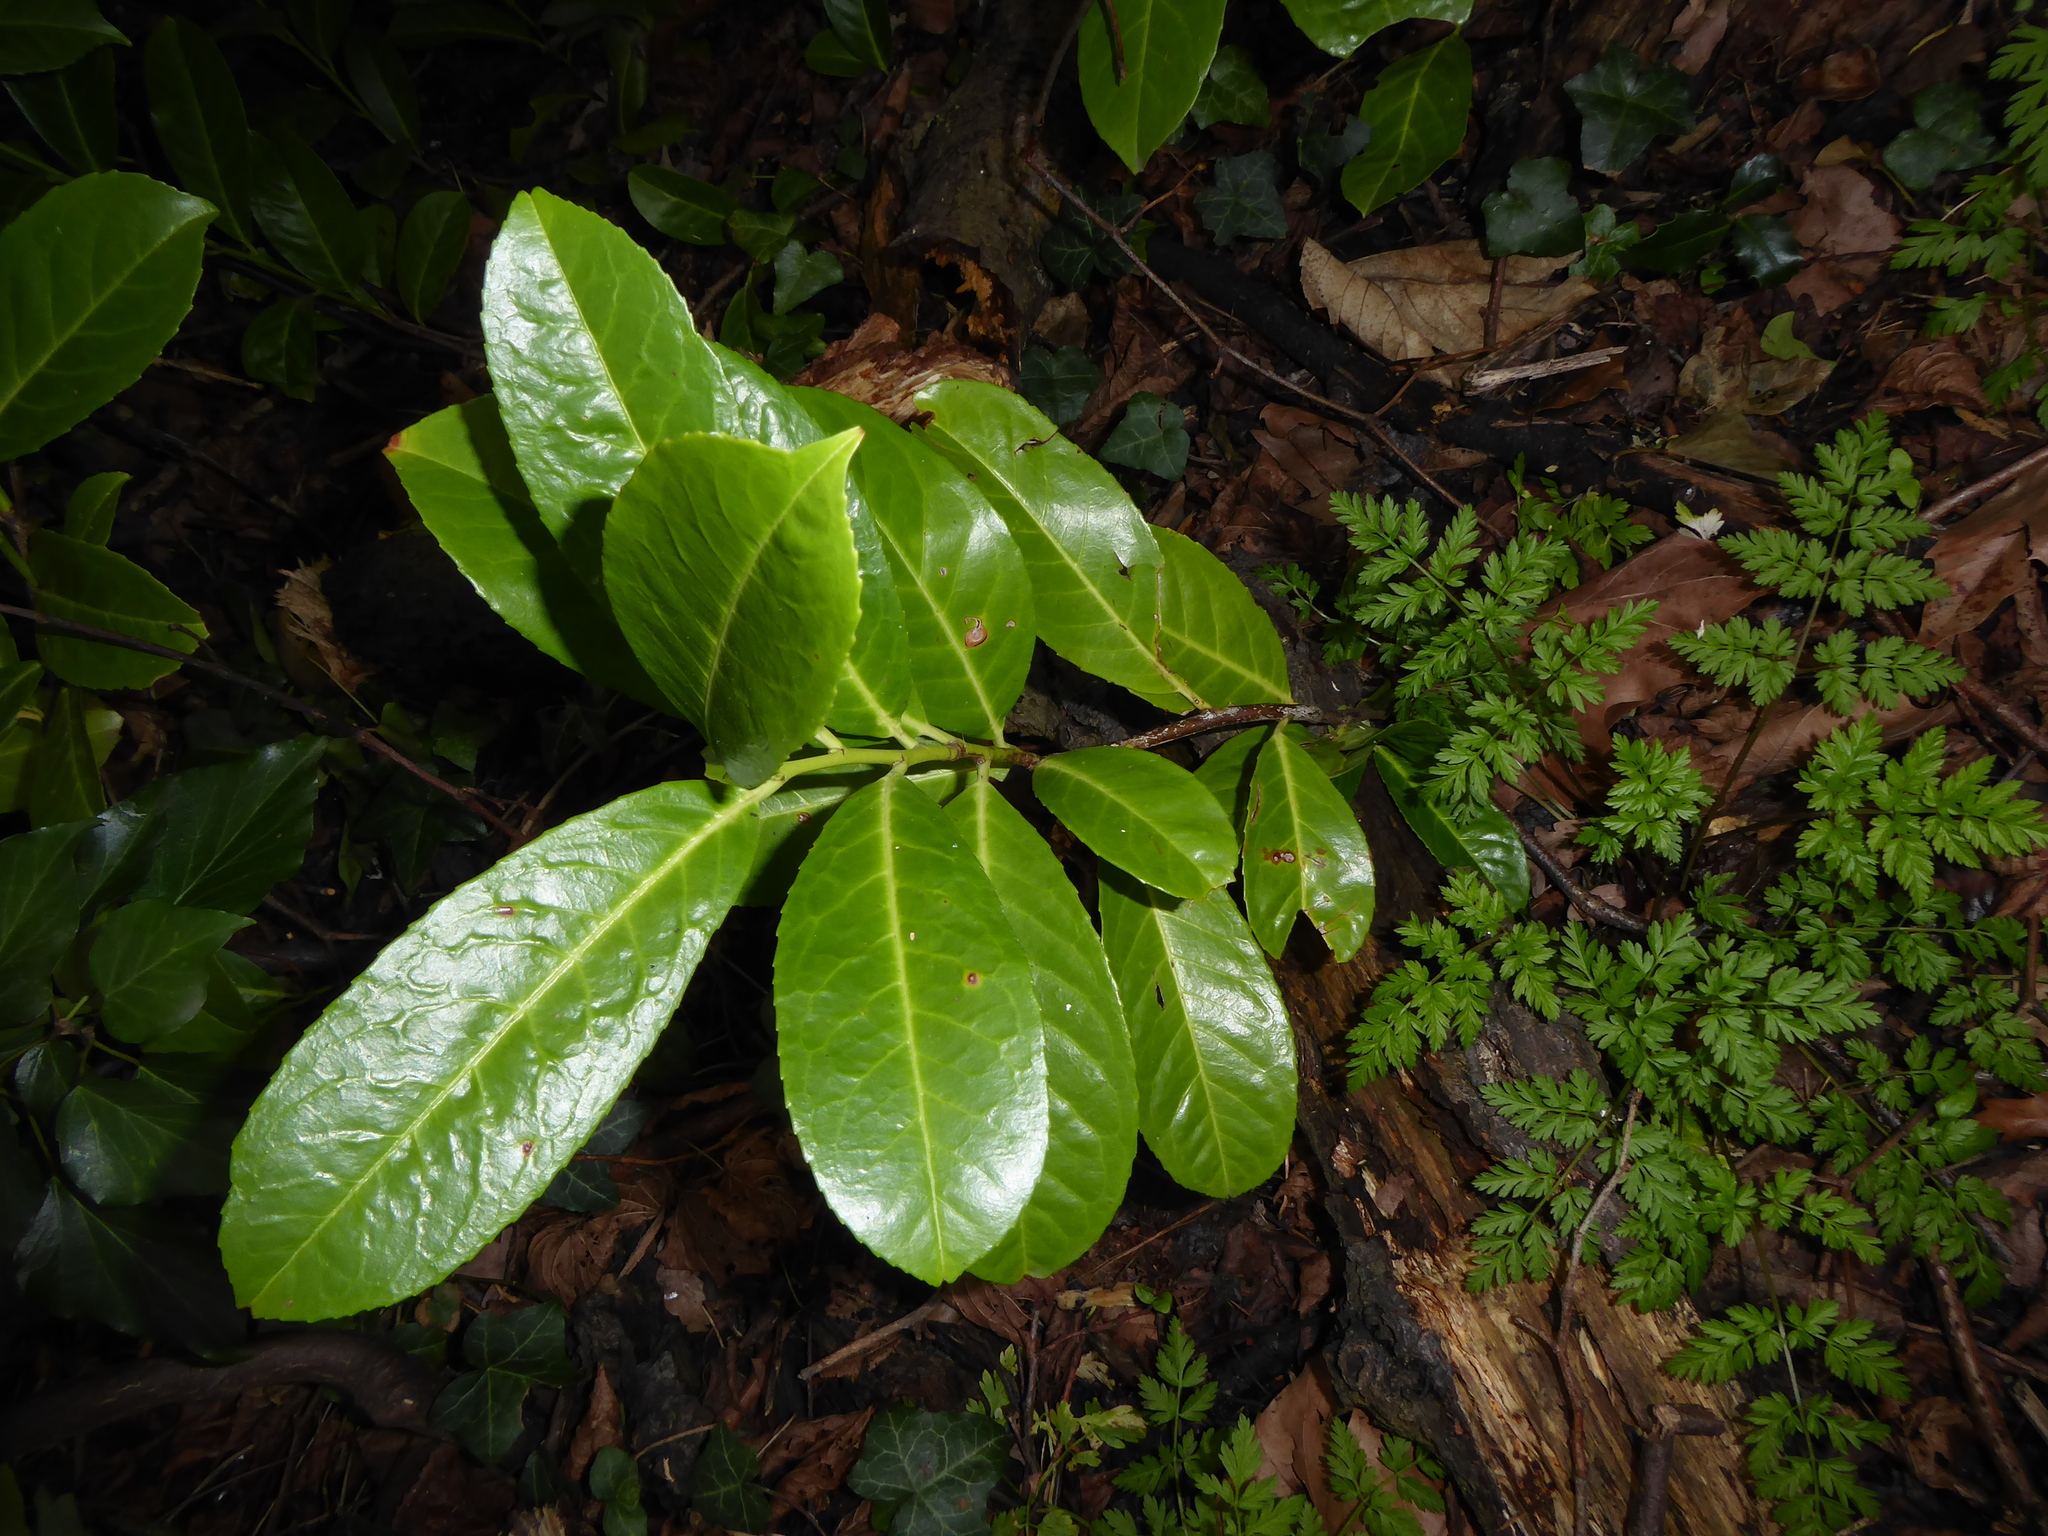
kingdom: Plantae
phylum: Tracheophyta
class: Magnoliopsida
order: Rosales
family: Rosaceae
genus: Prunus
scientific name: Prunus laurocerasus
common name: Cherry laurel
